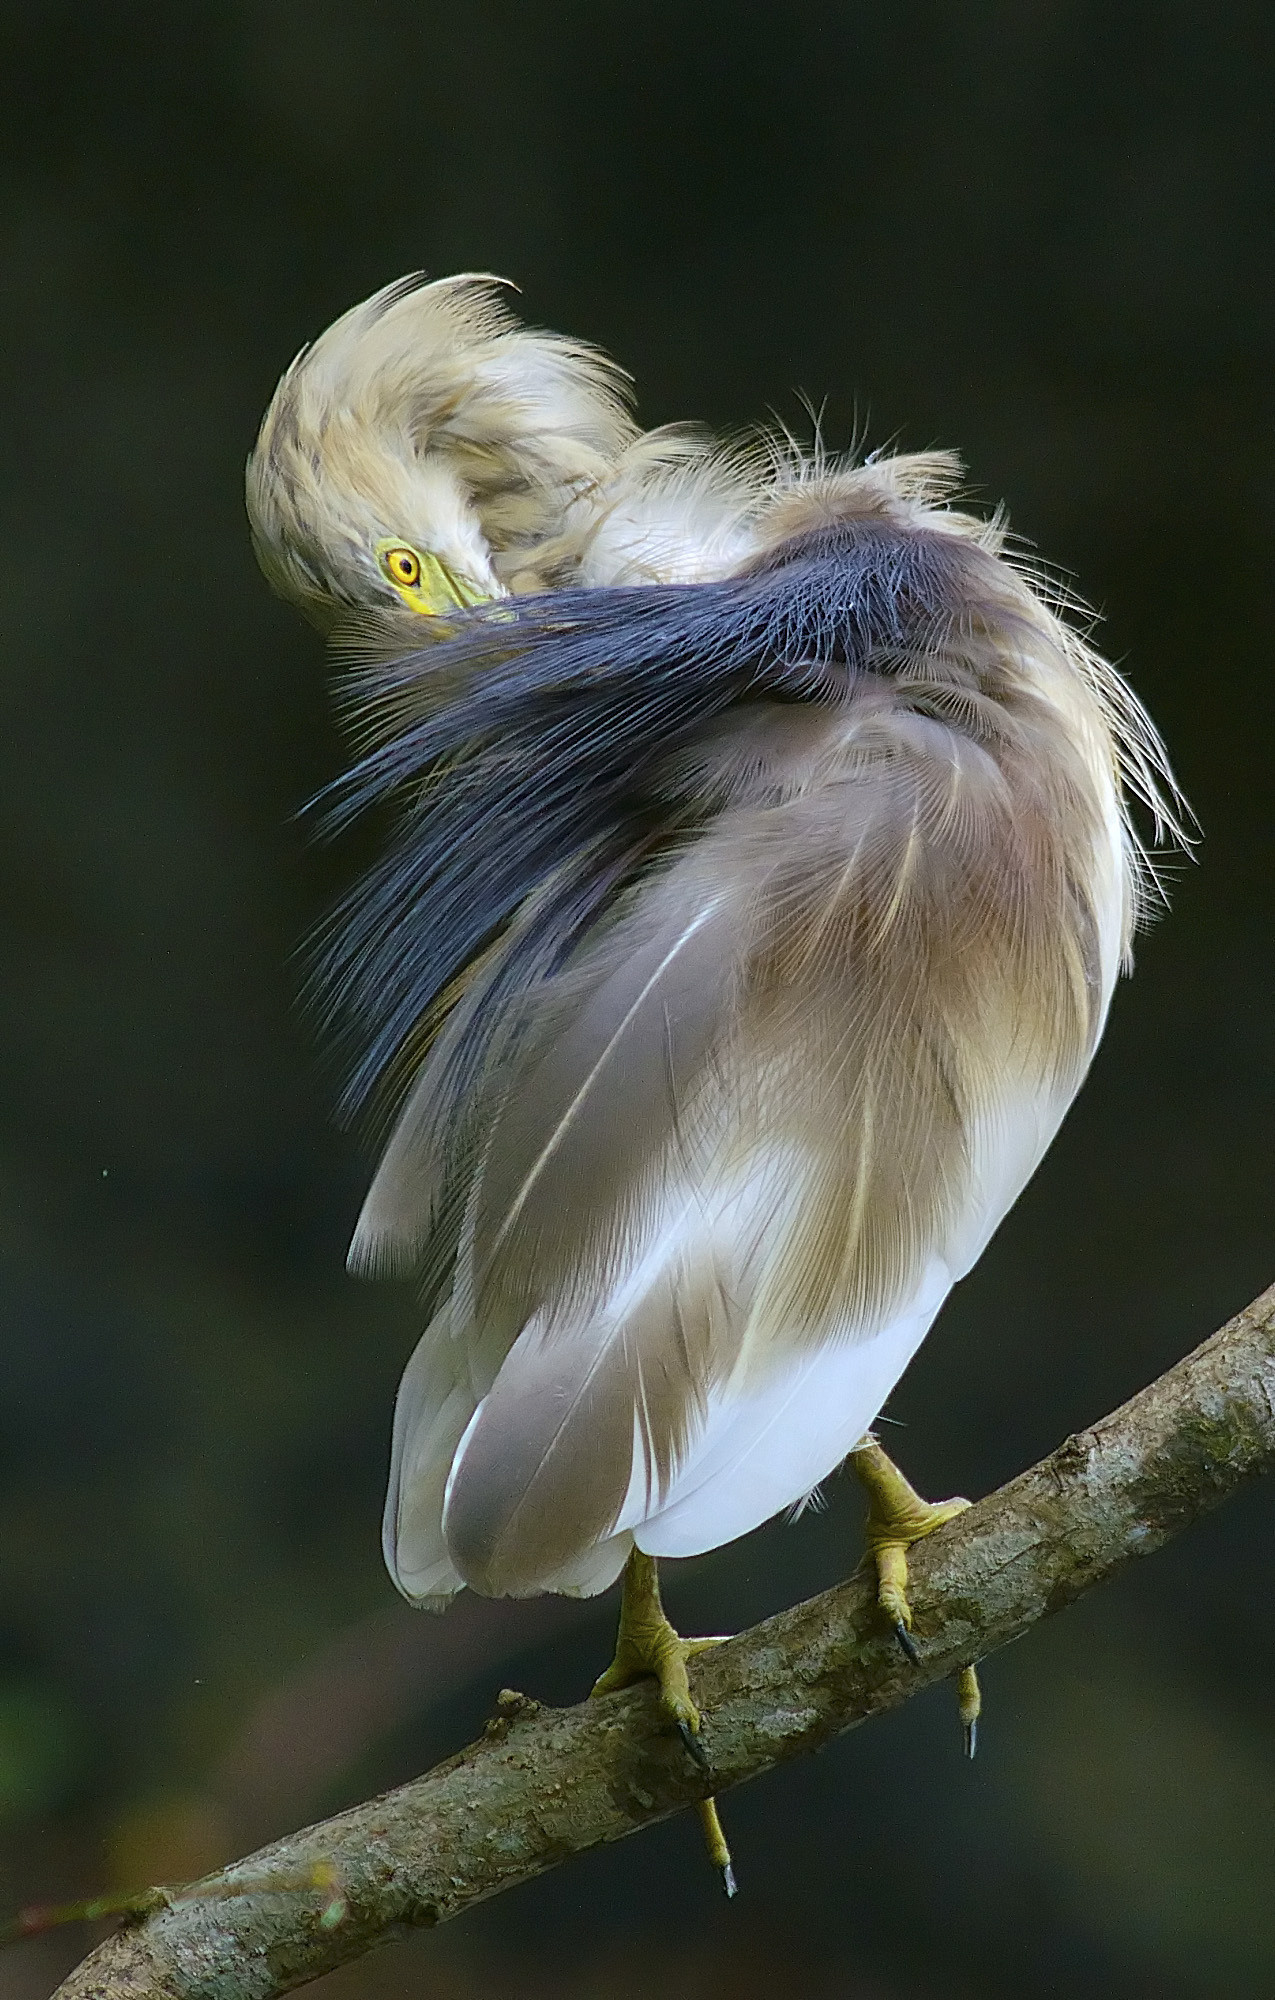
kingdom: Animalia
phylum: Chordata
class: Aves
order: Pelecaniformes
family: Ardeidae
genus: Ardeola
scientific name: Ardeola grayii
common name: Indian pond heron
